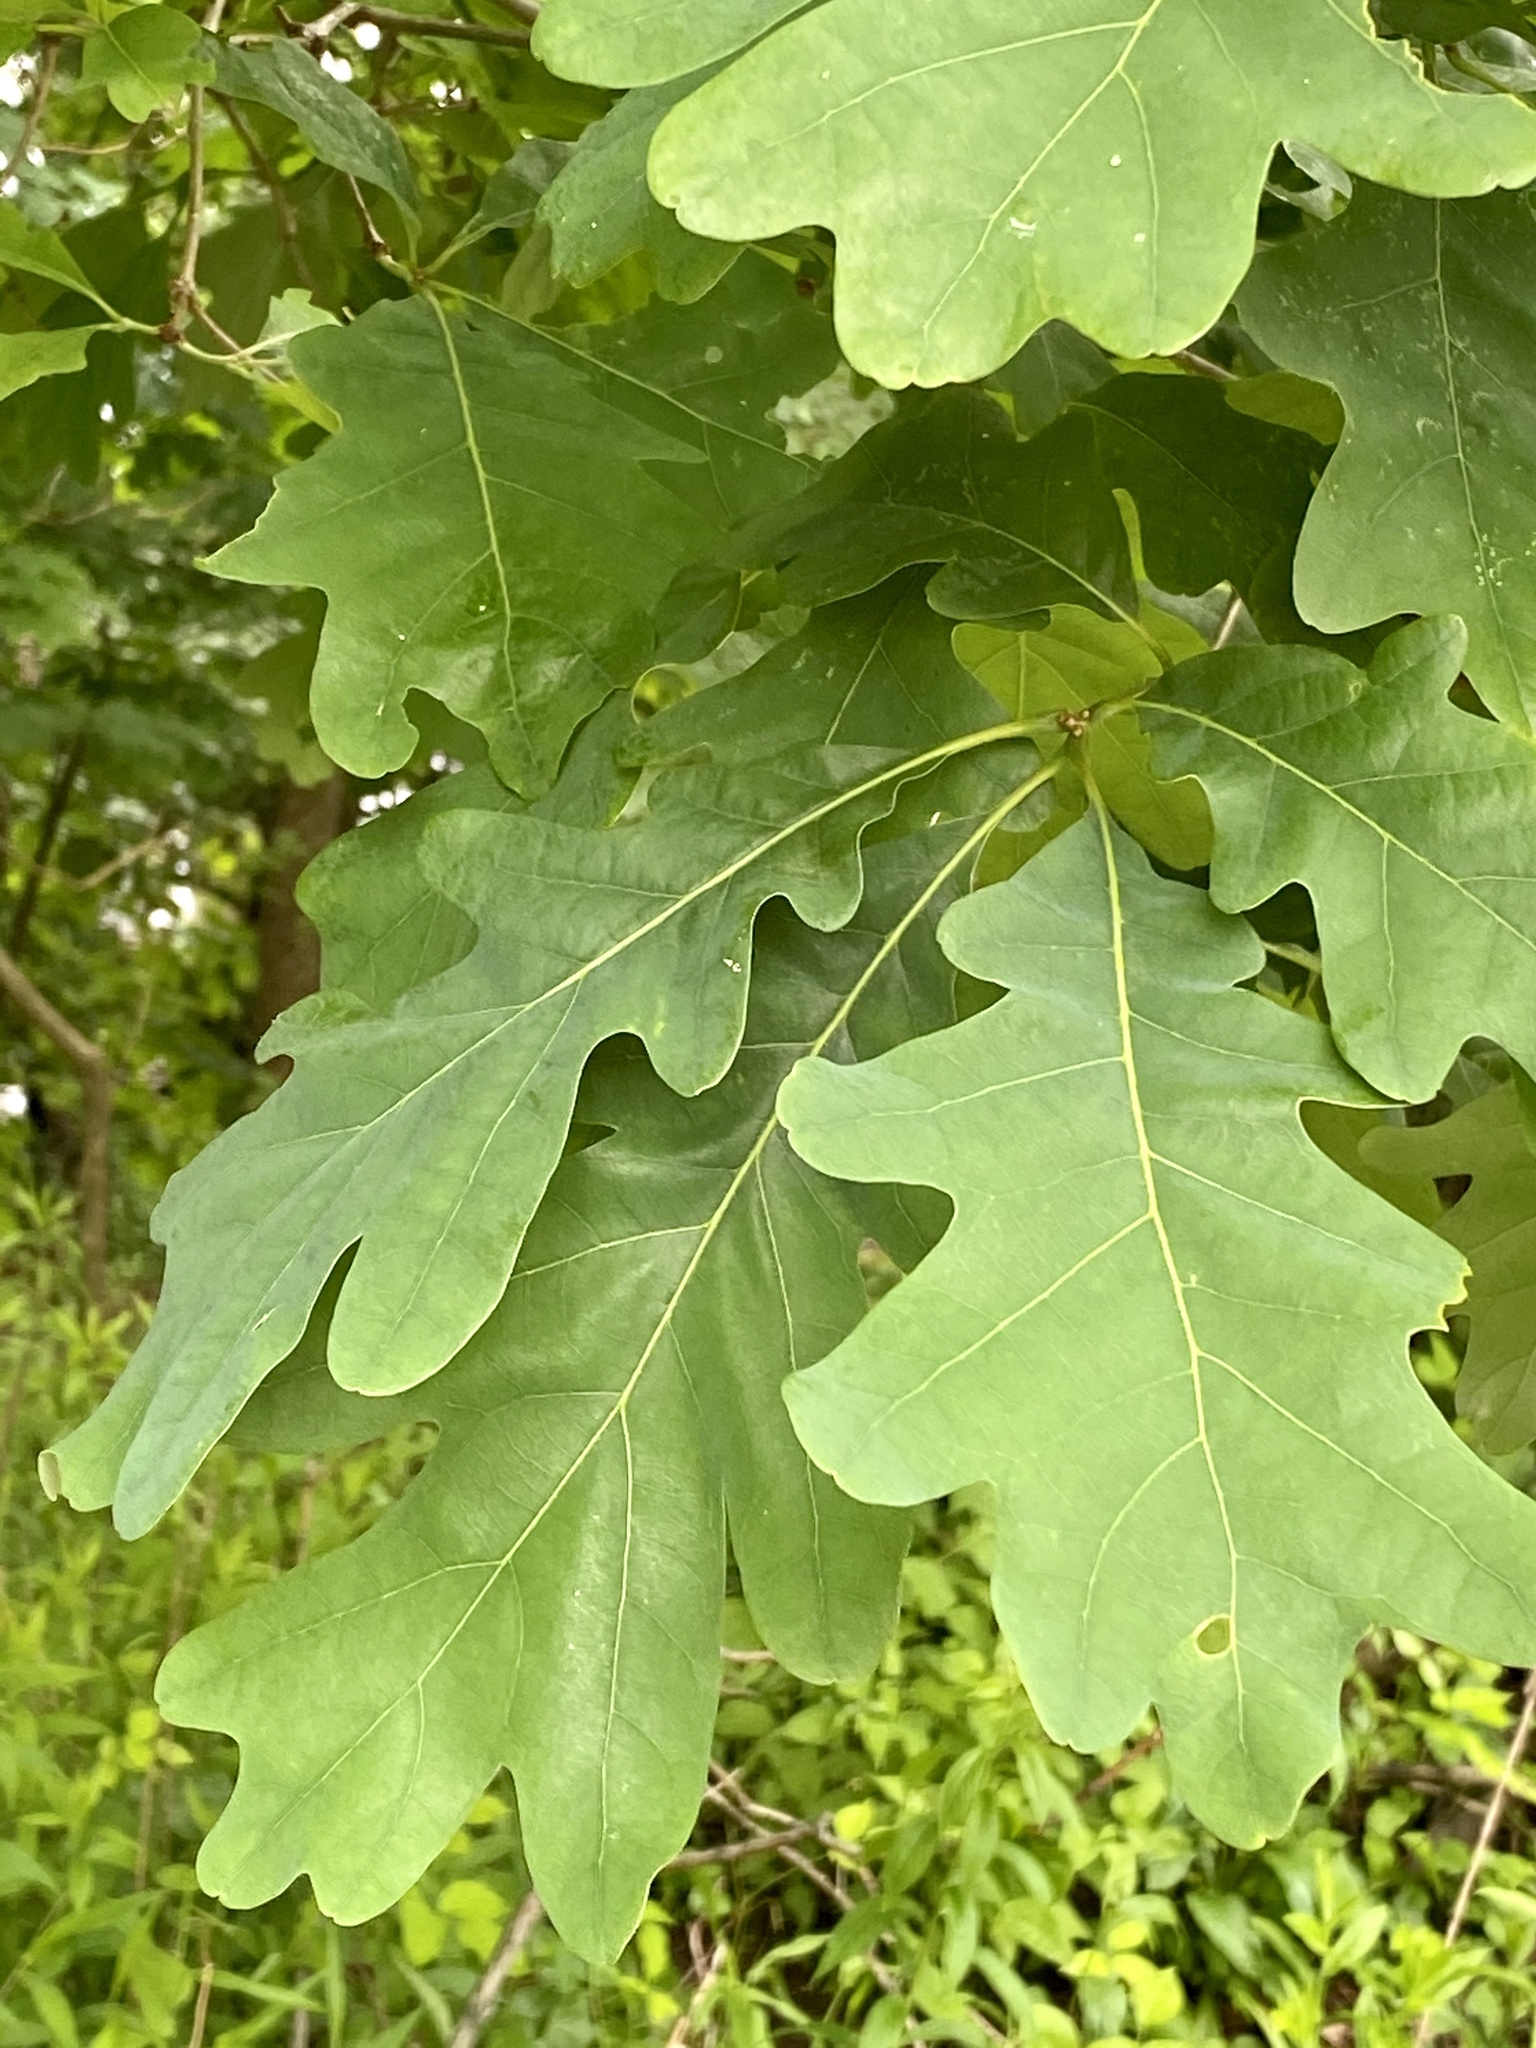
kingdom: Plantae
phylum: Tracheophyta
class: Magnoliopsida
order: Fagales
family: Fagaceae
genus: Quercus
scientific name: Quercus alba
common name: White oak
